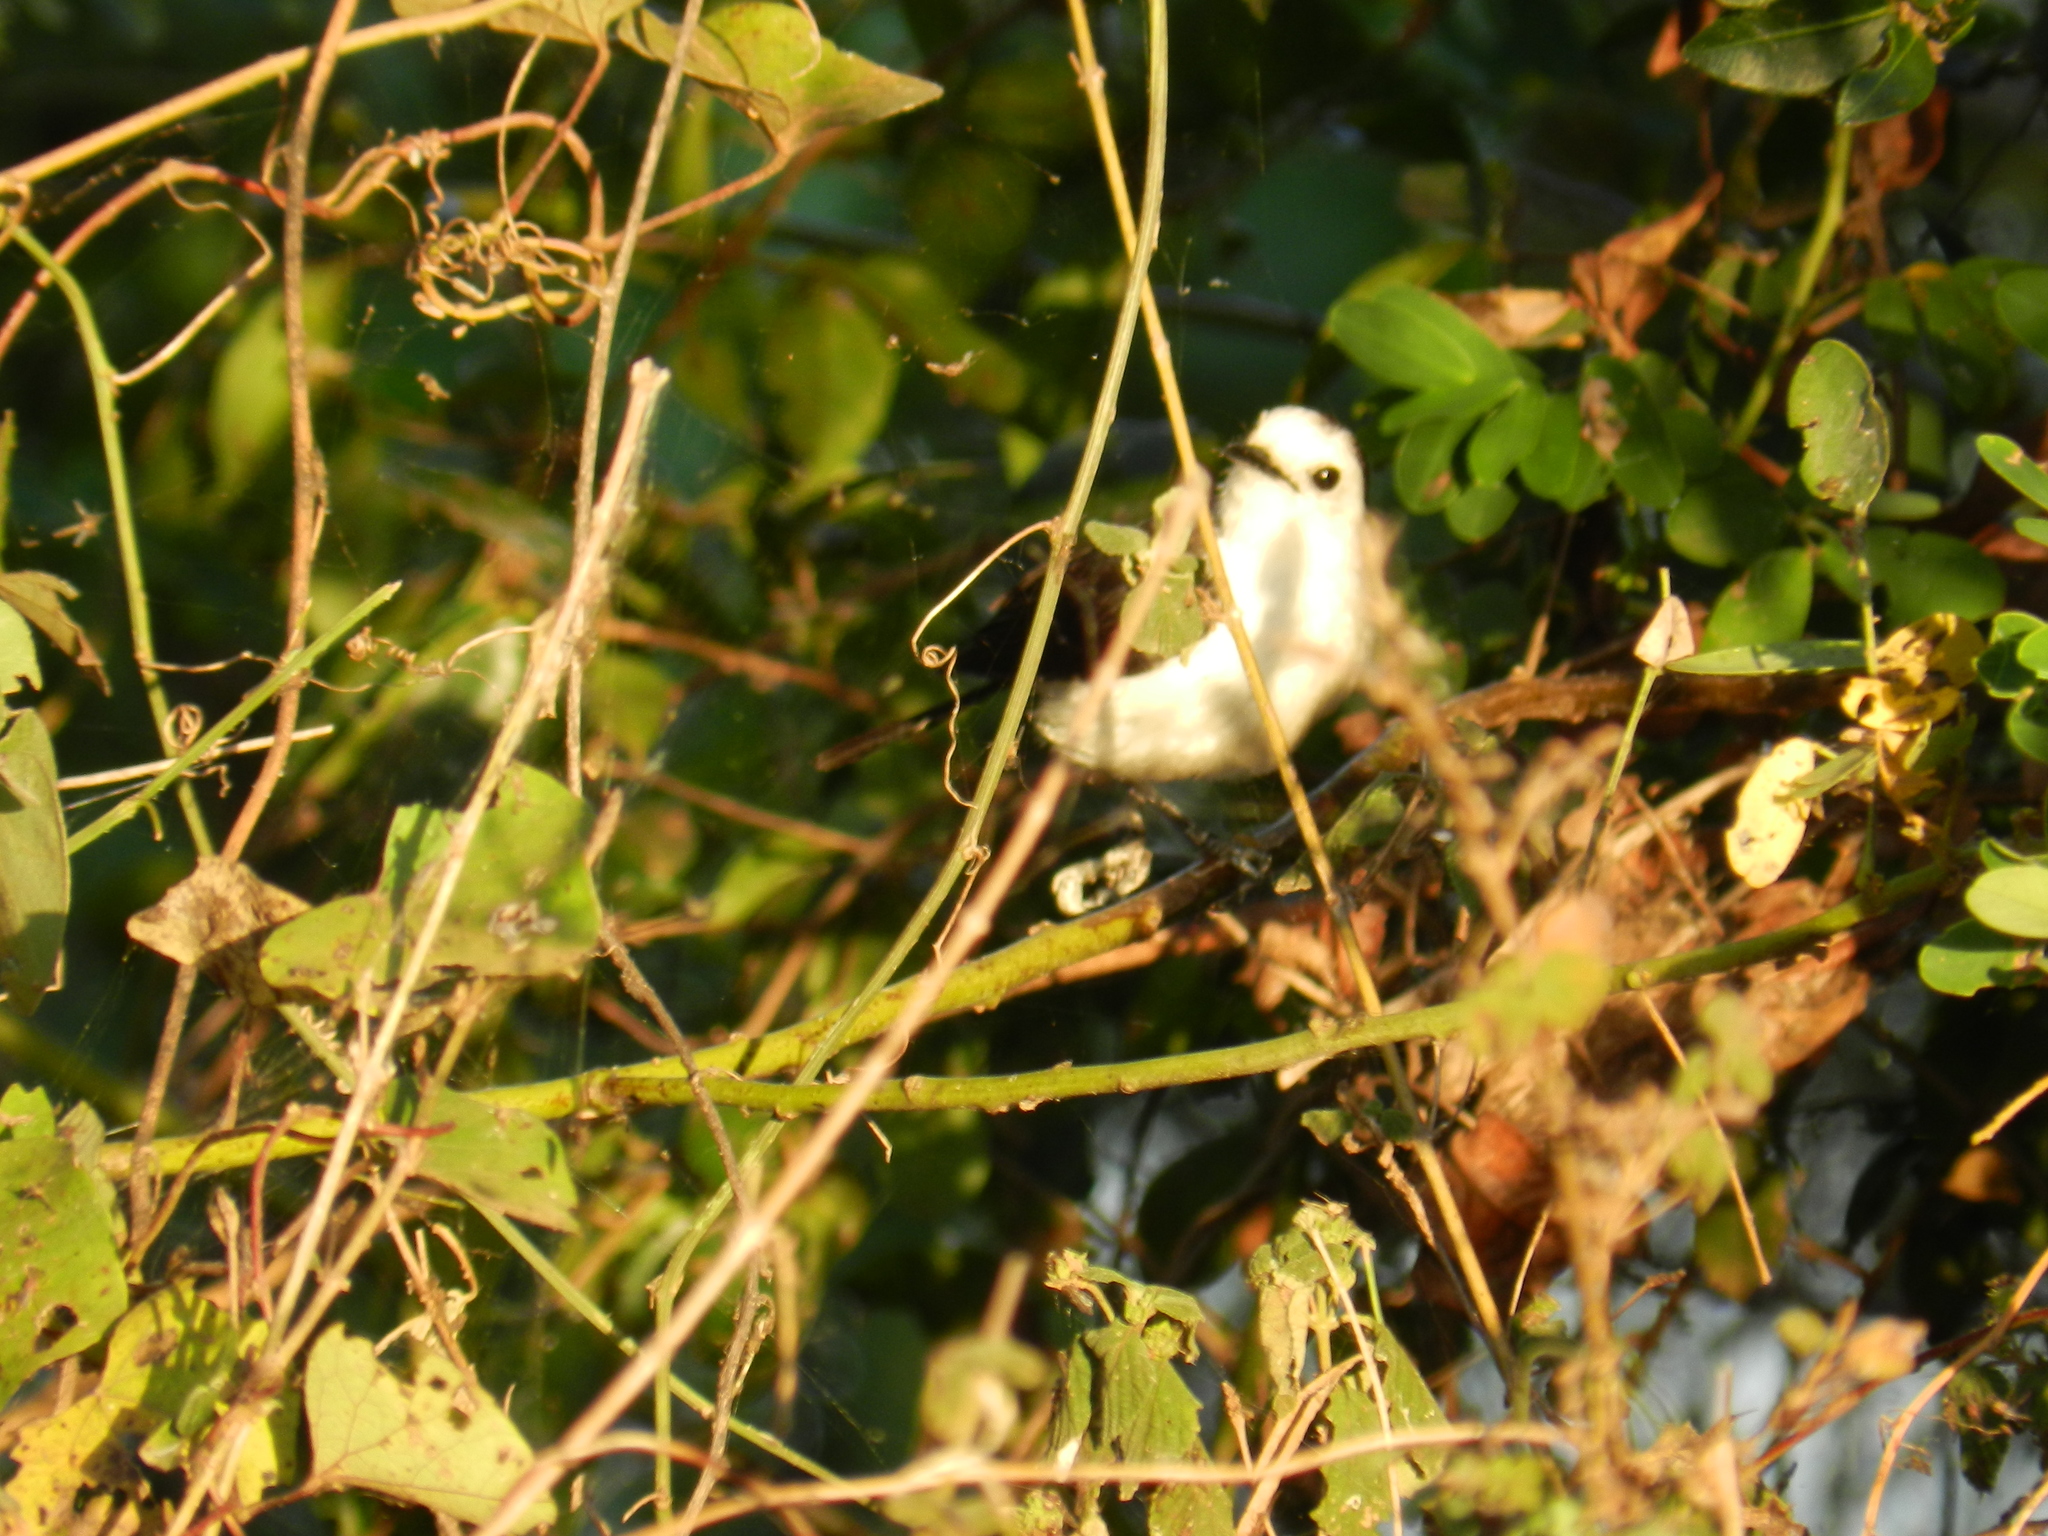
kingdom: Animalia
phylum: Chordata
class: Aves
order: Passeriformes
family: Tyrannidae
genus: Fluvicola
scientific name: Fluvicola pica
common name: Pied water-tyrant
